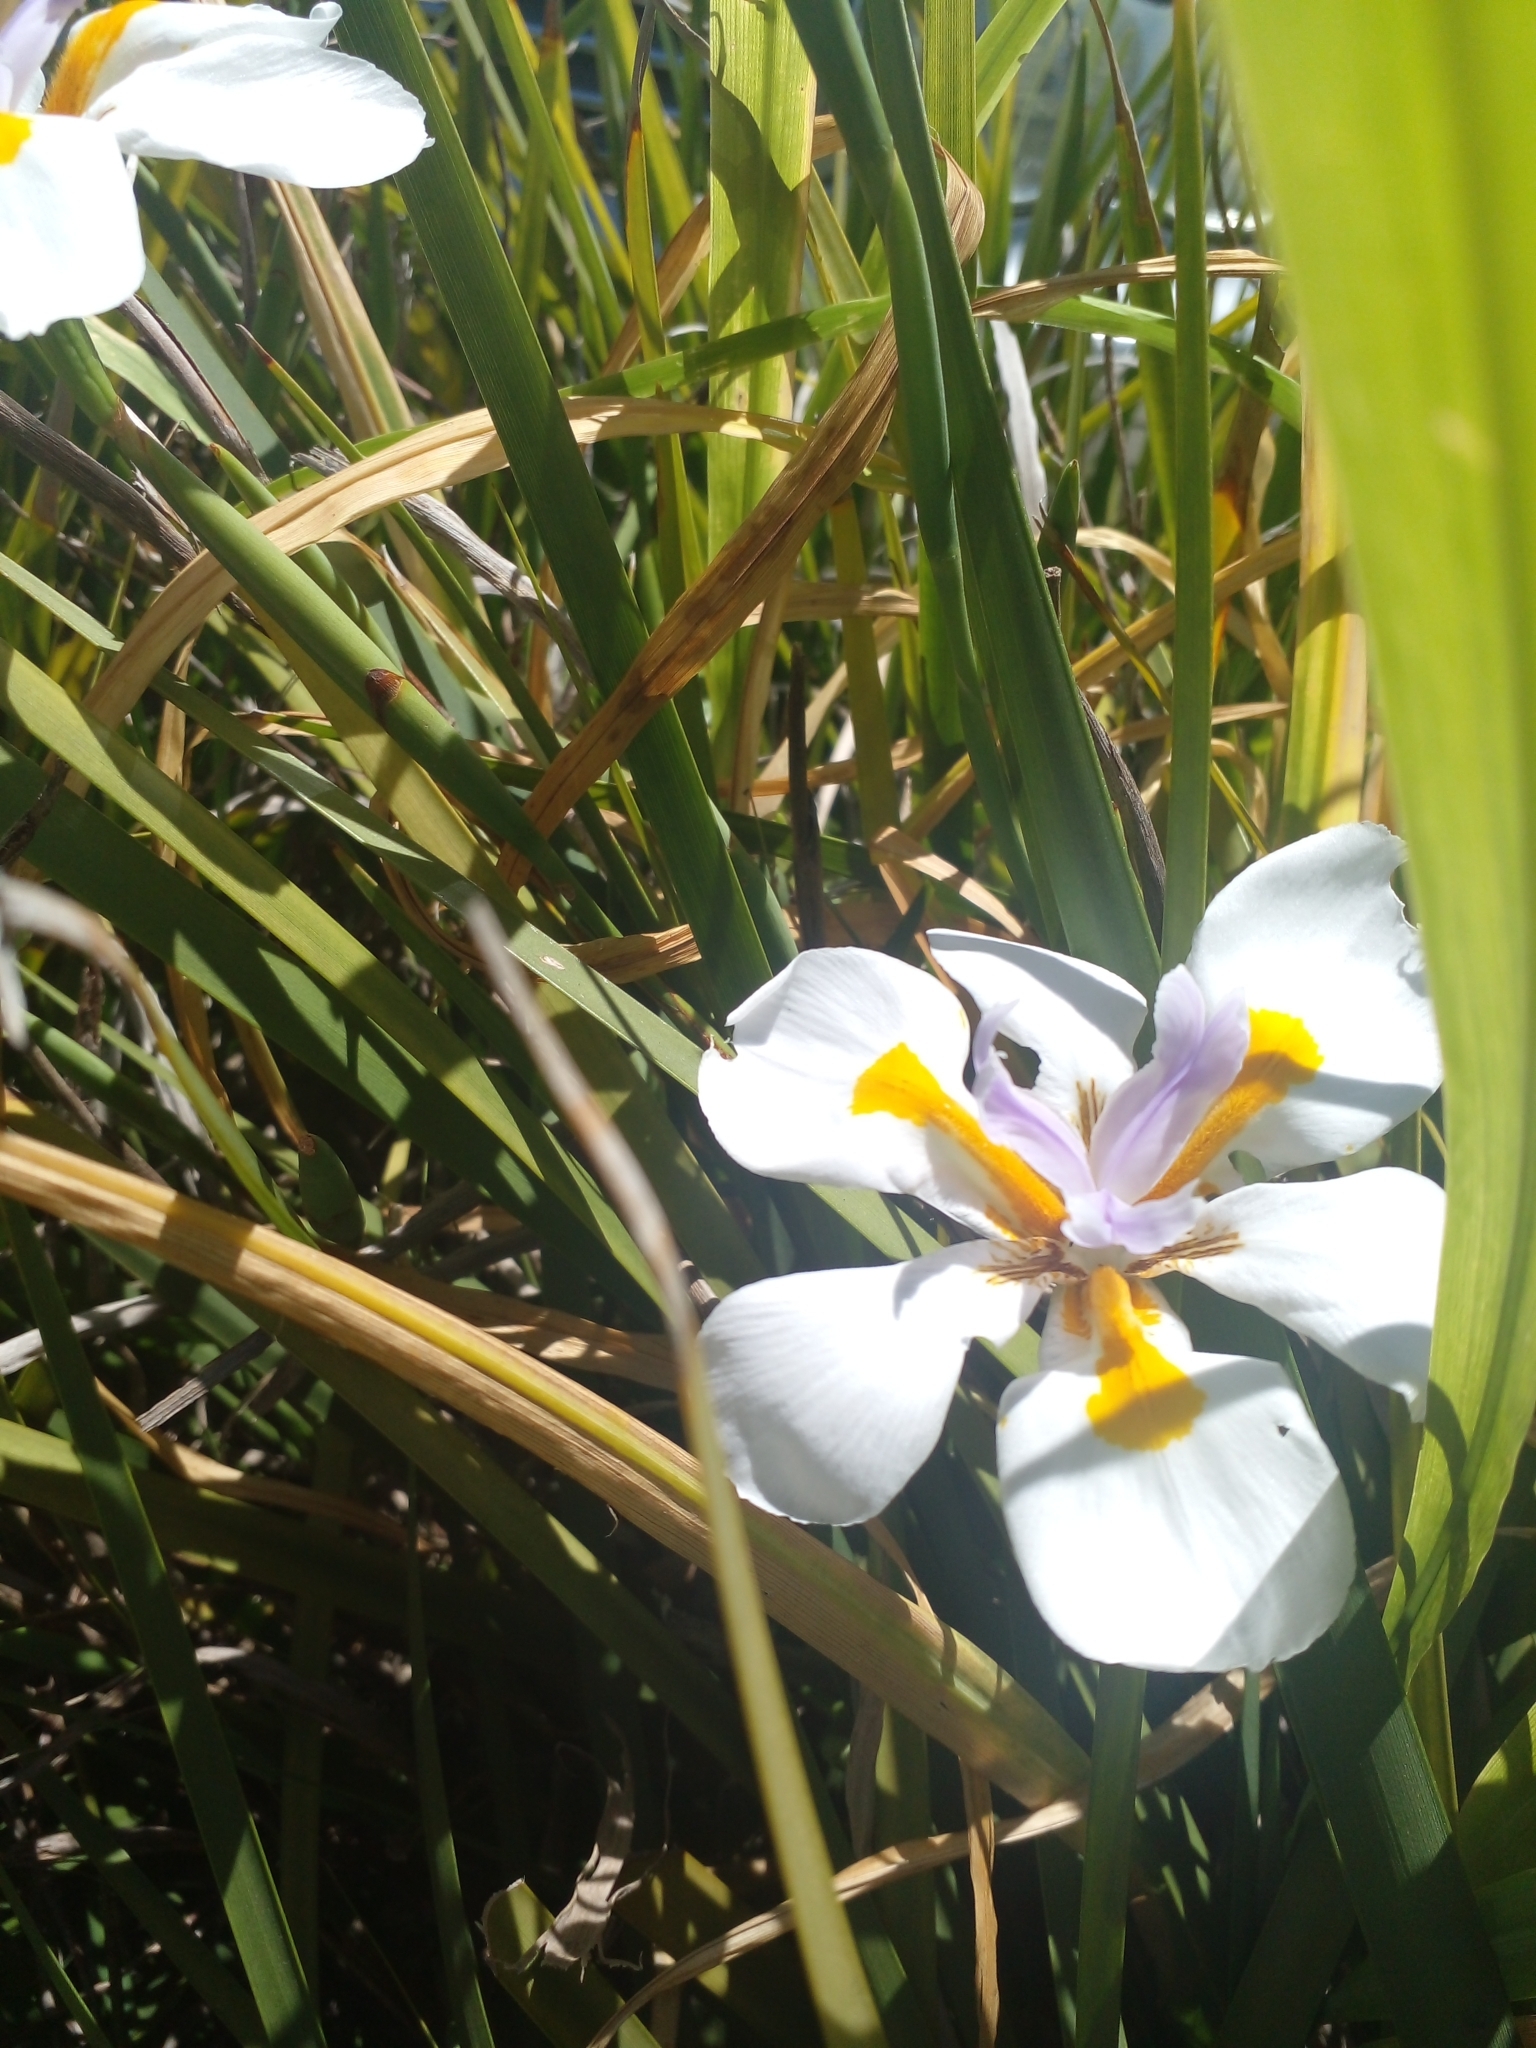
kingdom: Plantae
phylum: Tracheophyta
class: Liliopsida
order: Asparagales
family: Iridaceae
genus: Dietes
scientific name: Dietes grandiflora
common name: Wild iris
